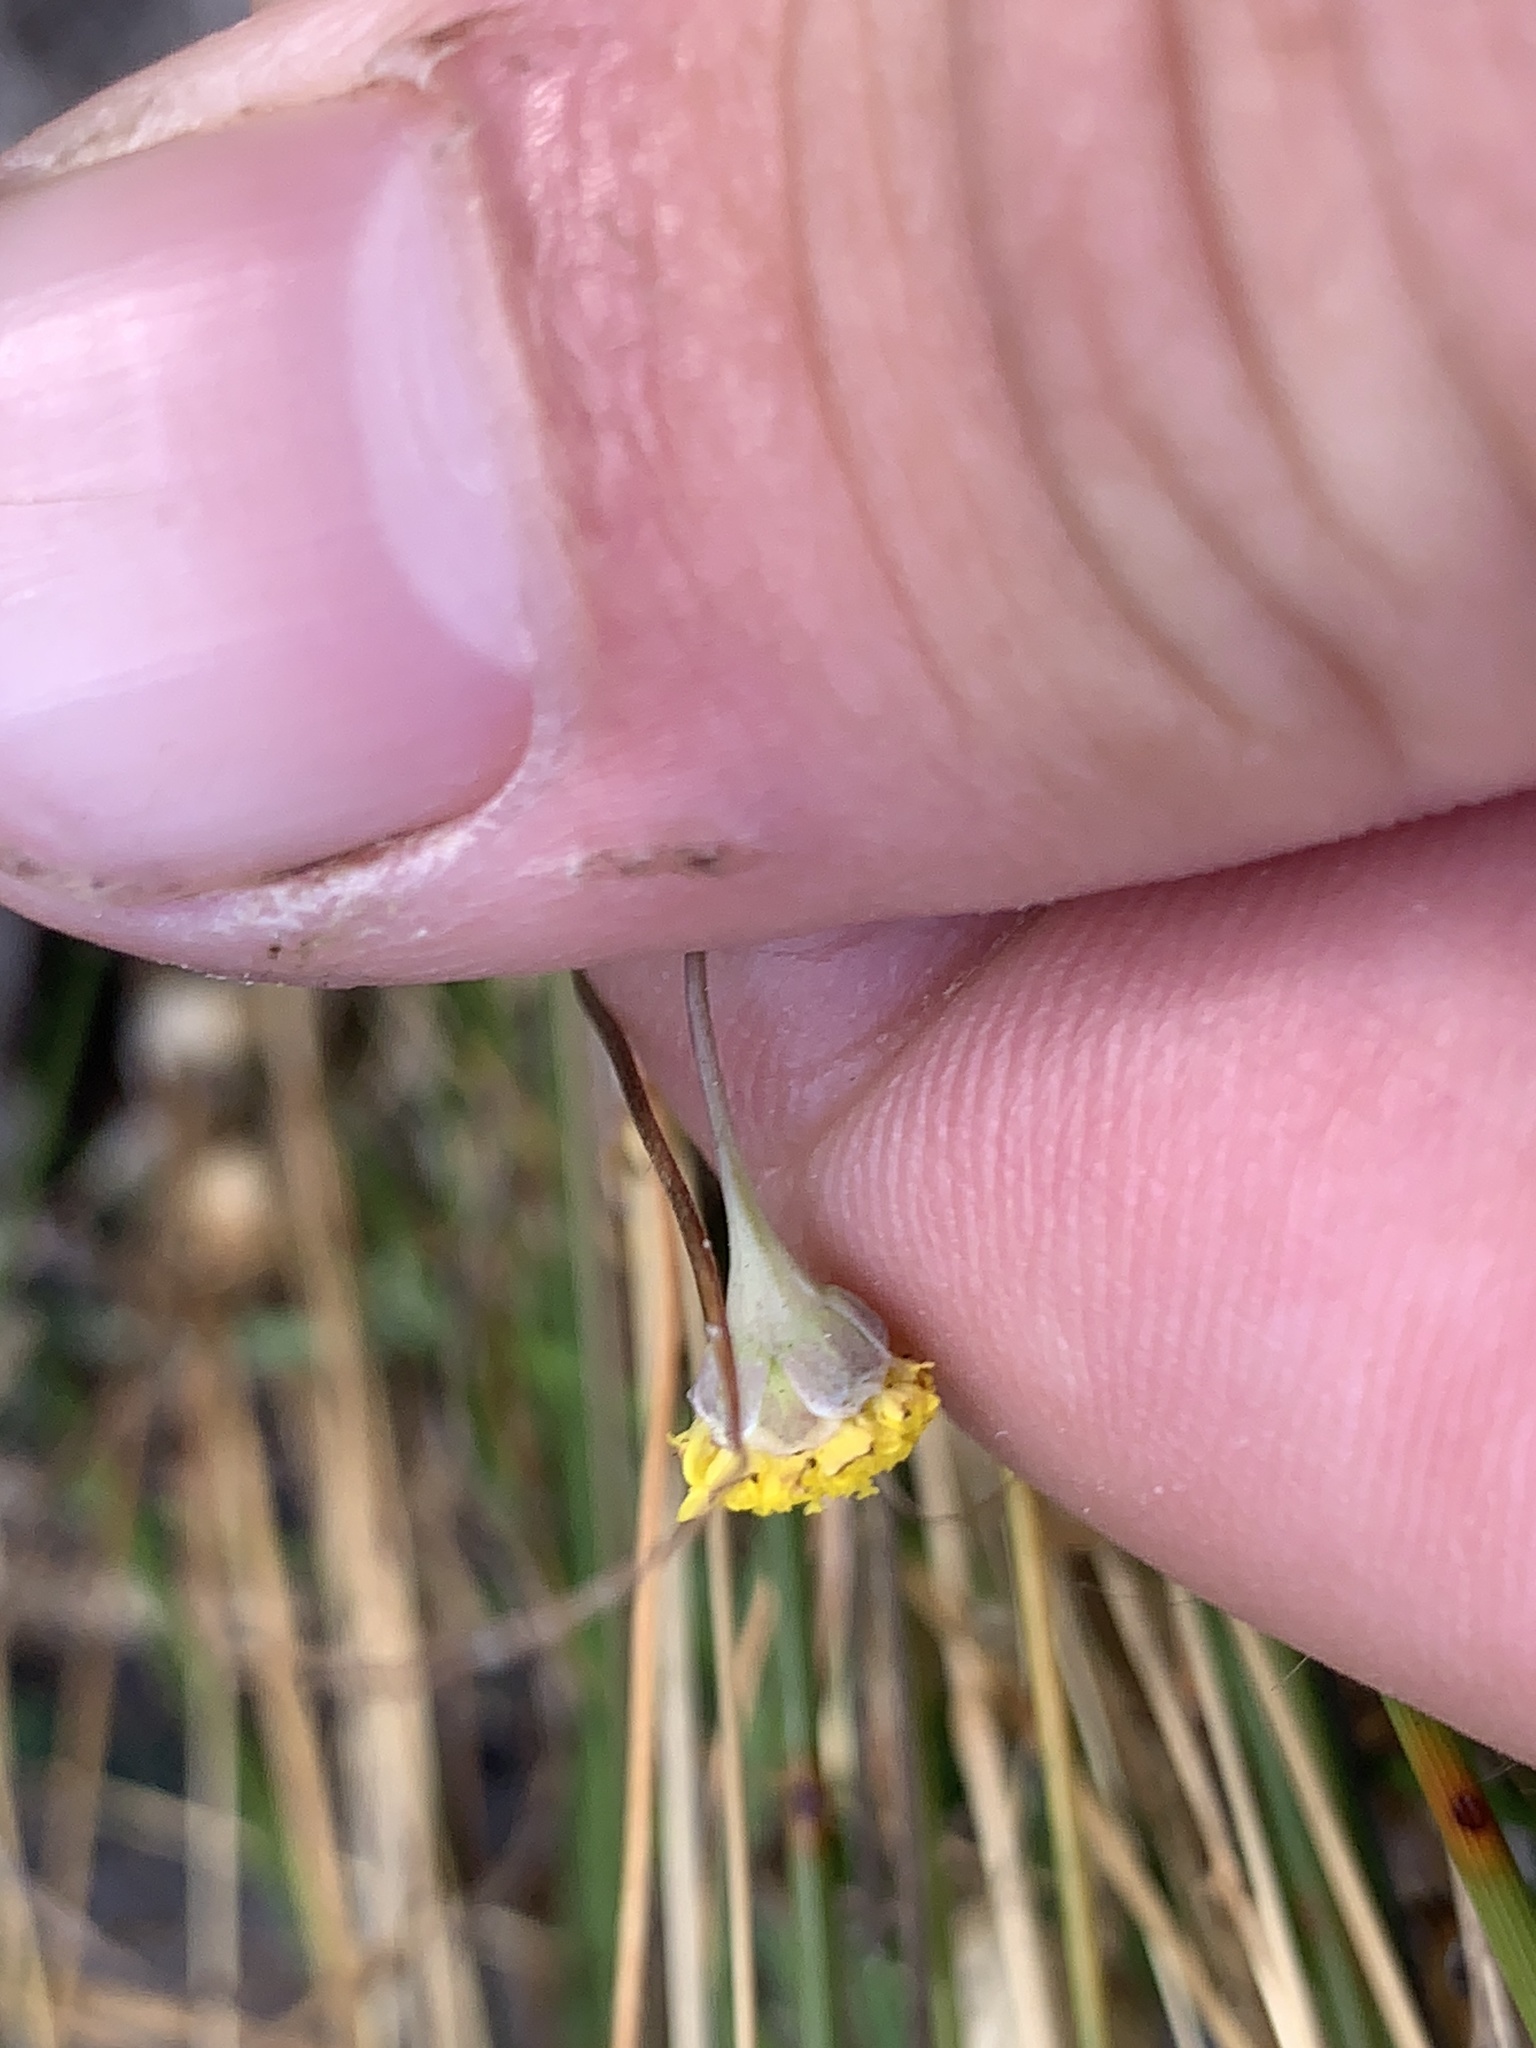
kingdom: Plantae
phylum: Tracheophyta
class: Magnoliopsida
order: Asterales
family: Asteraceae
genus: Cotula
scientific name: Cotula pruinosa
